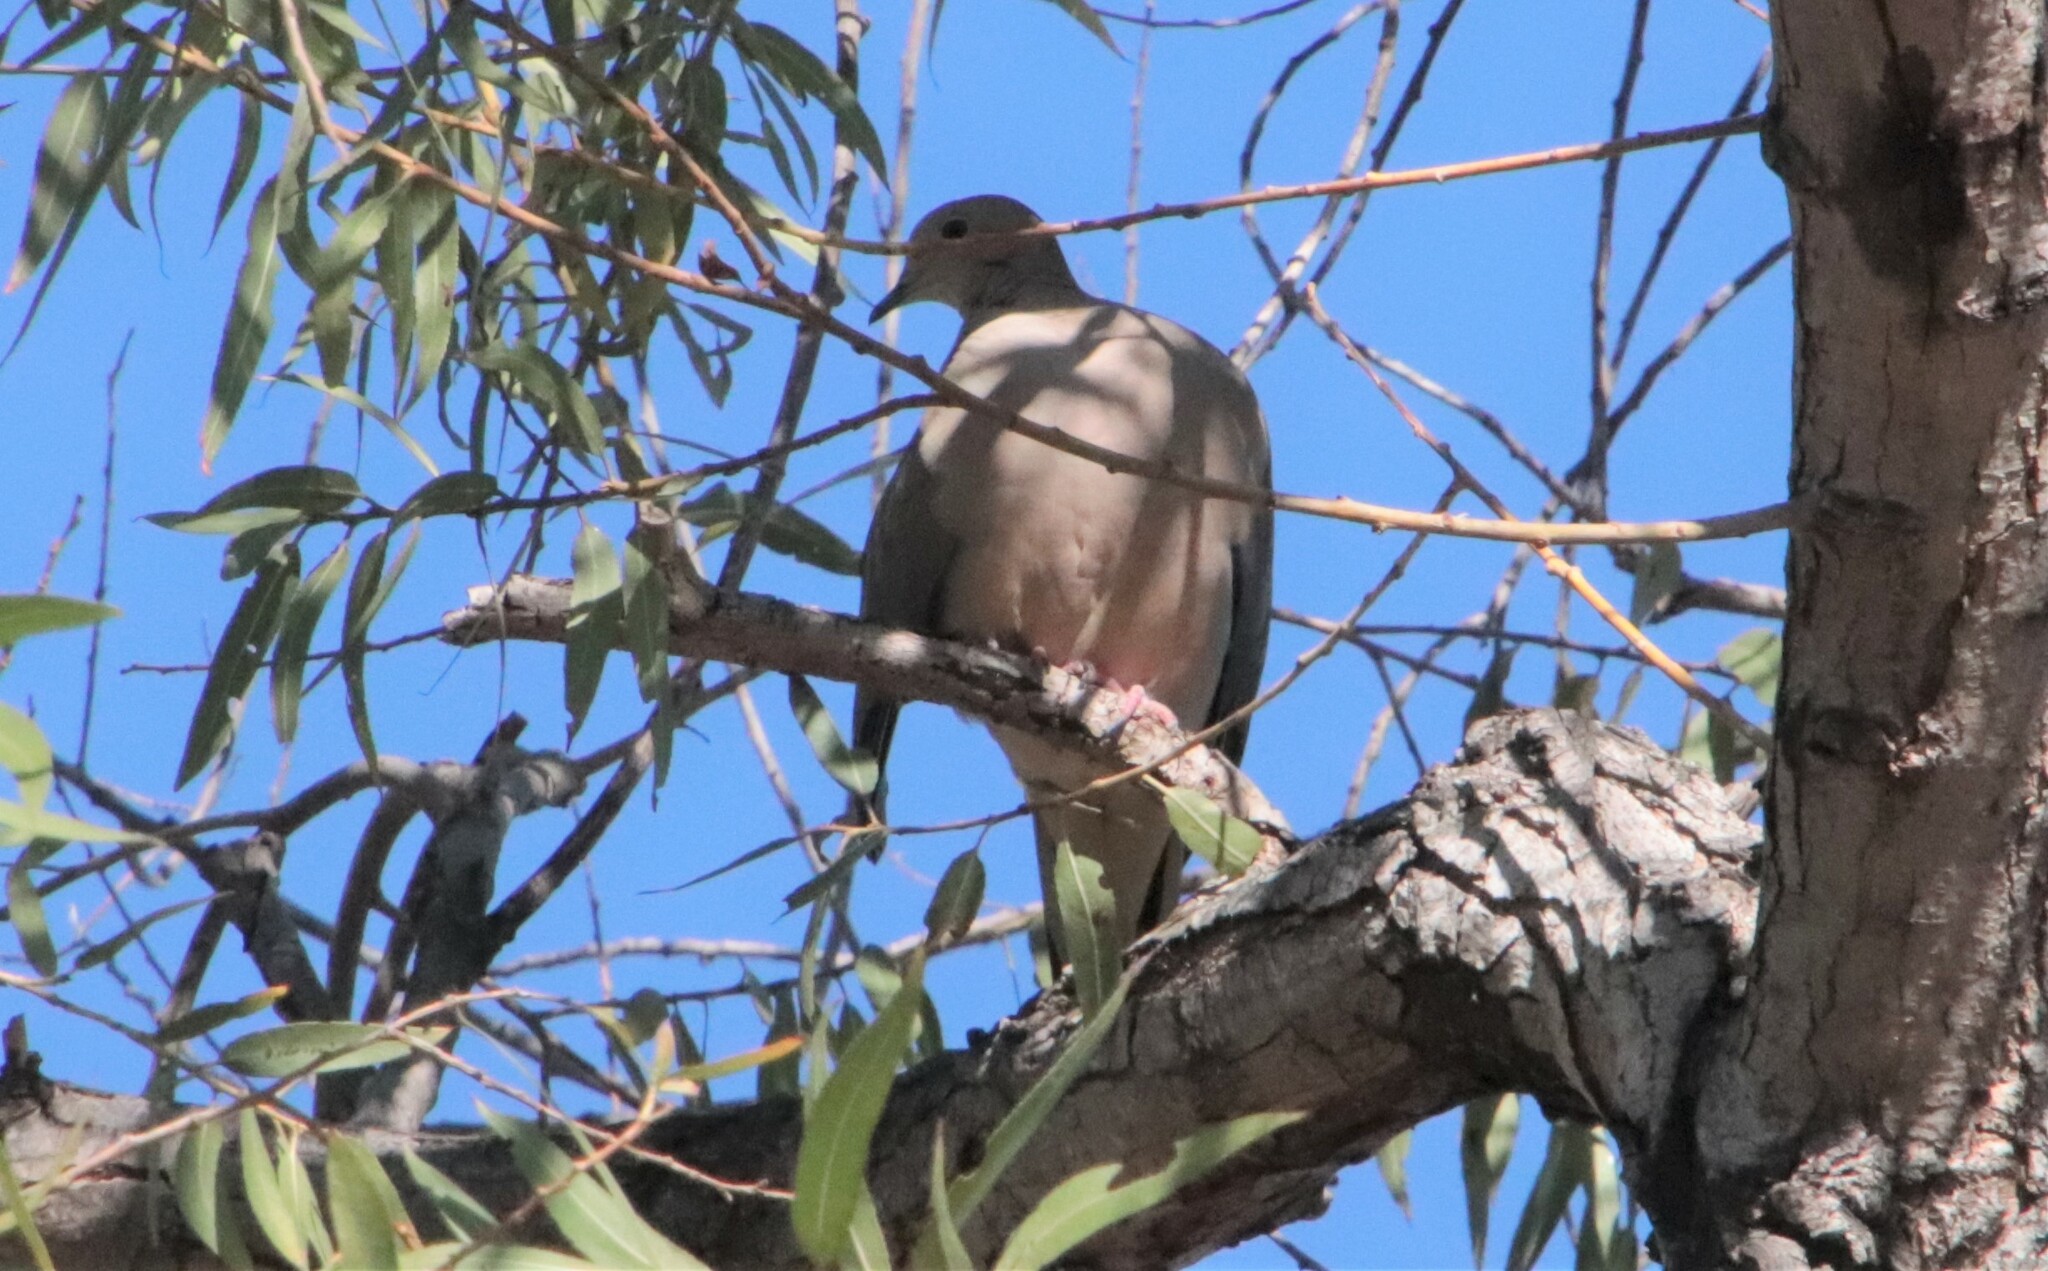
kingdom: Animalia
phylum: Chordata
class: Aves
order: Columbiformes
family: Columbidae
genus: Zenaida
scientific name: Zenaida macroura
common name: Mourning dove
